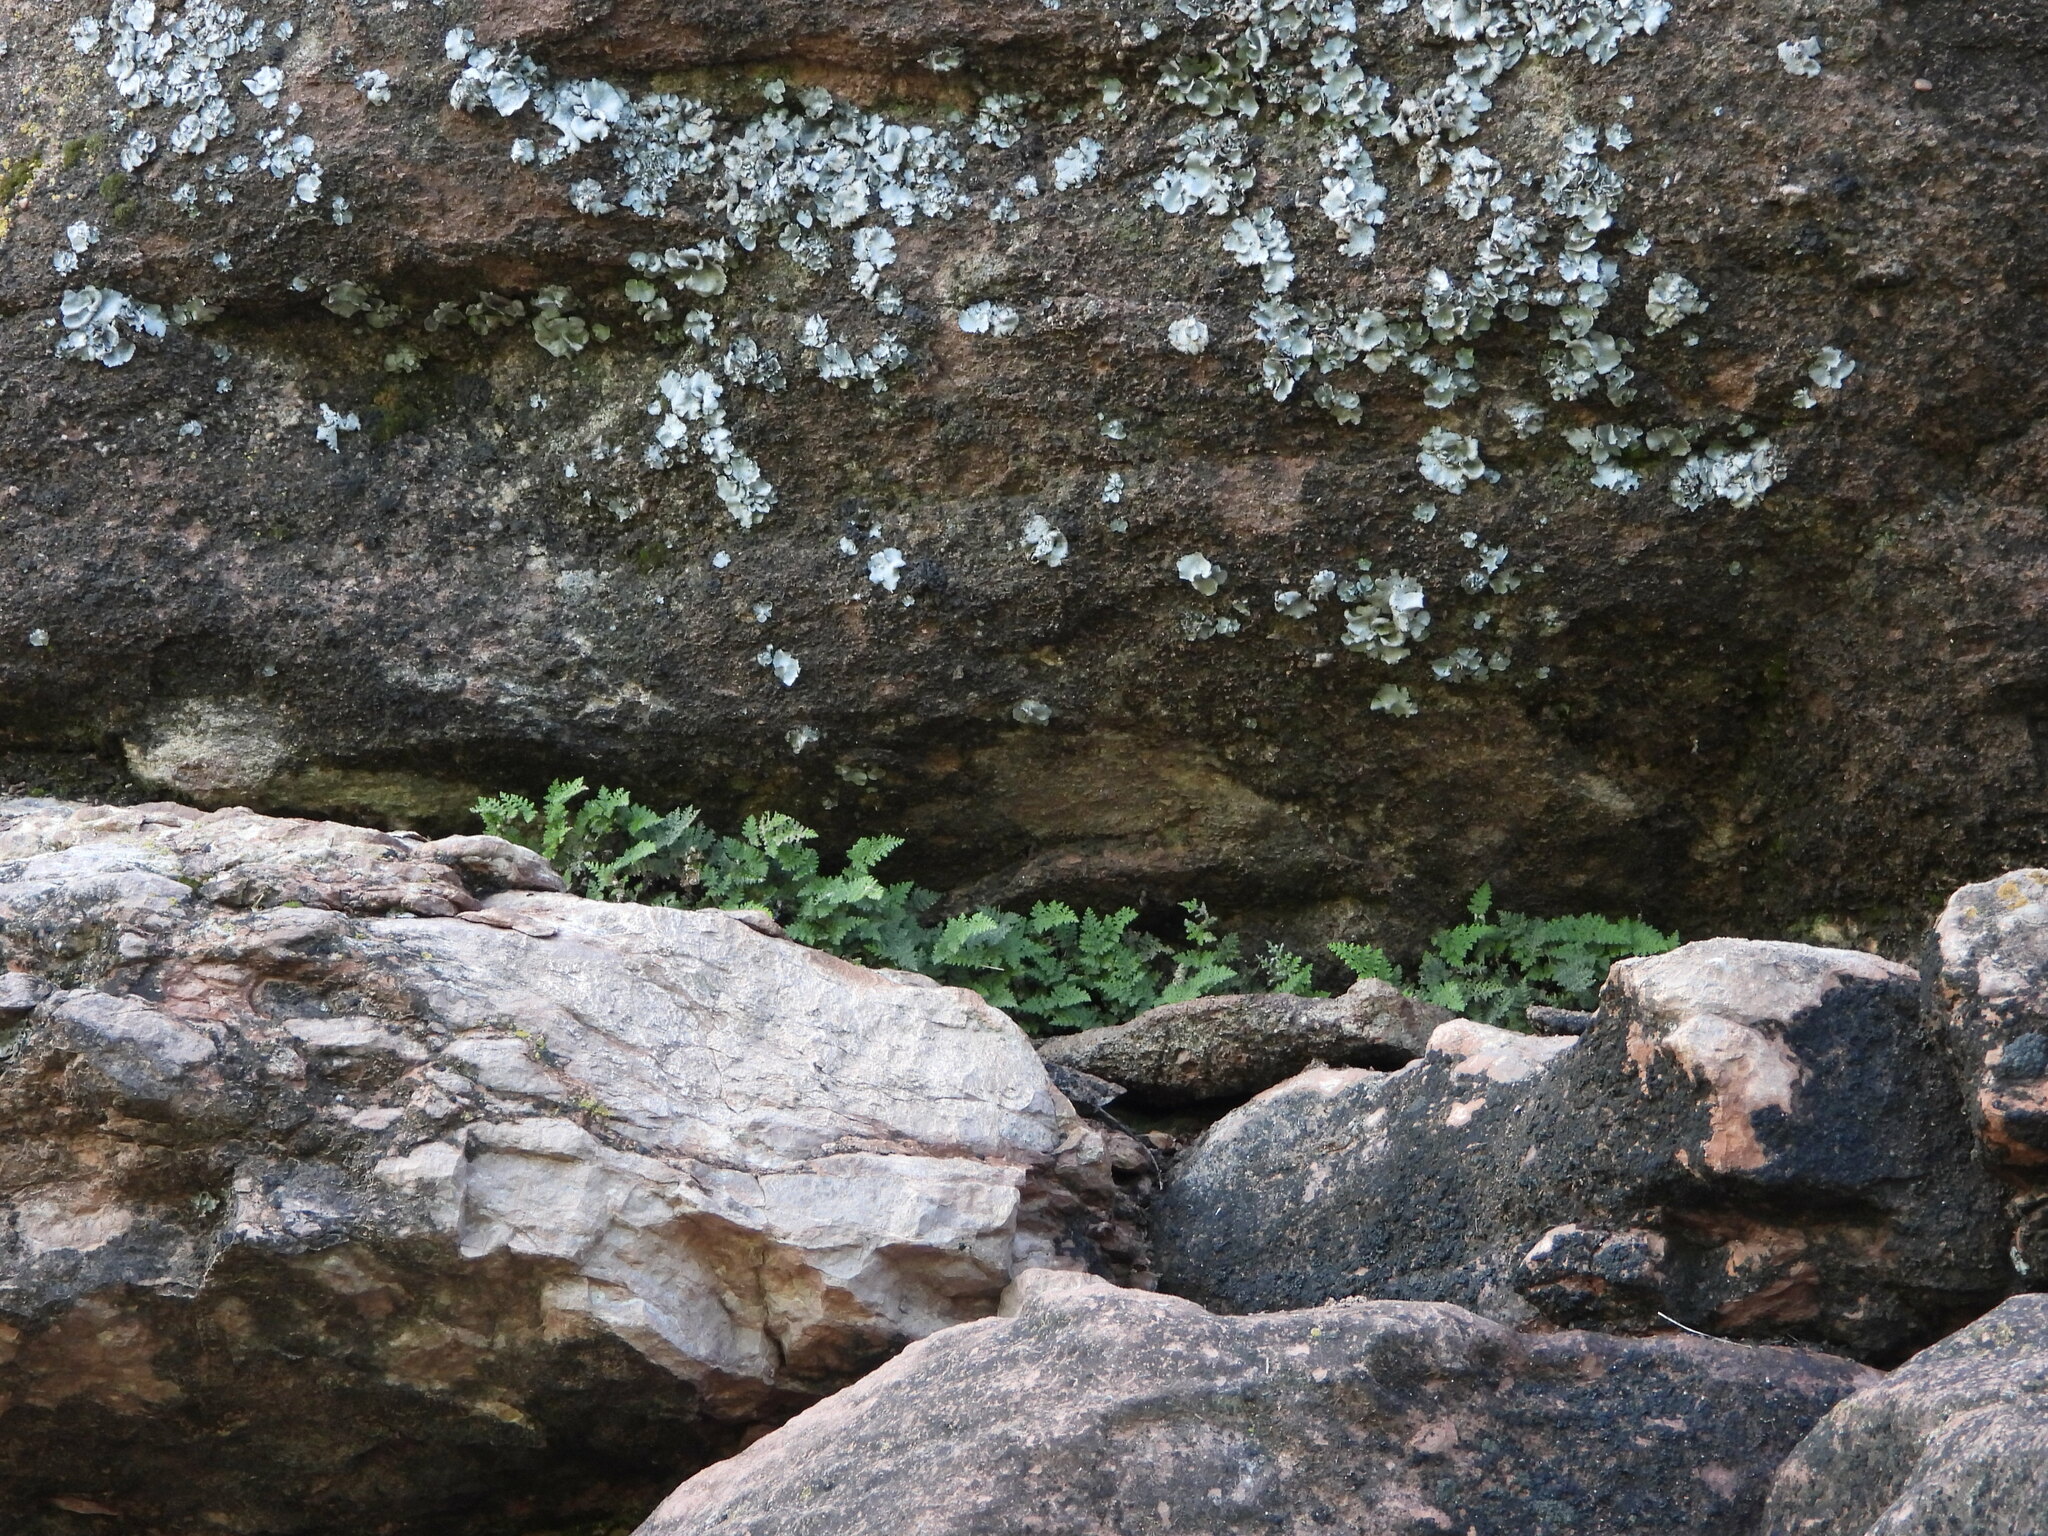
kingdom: Plantae
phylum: Tracheophyta
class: Polypodiopsida
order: Polypodiales
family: Pteridaceae
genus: Myriopteris
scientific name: Myriopteris gracilis
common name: Fee's lip fern
